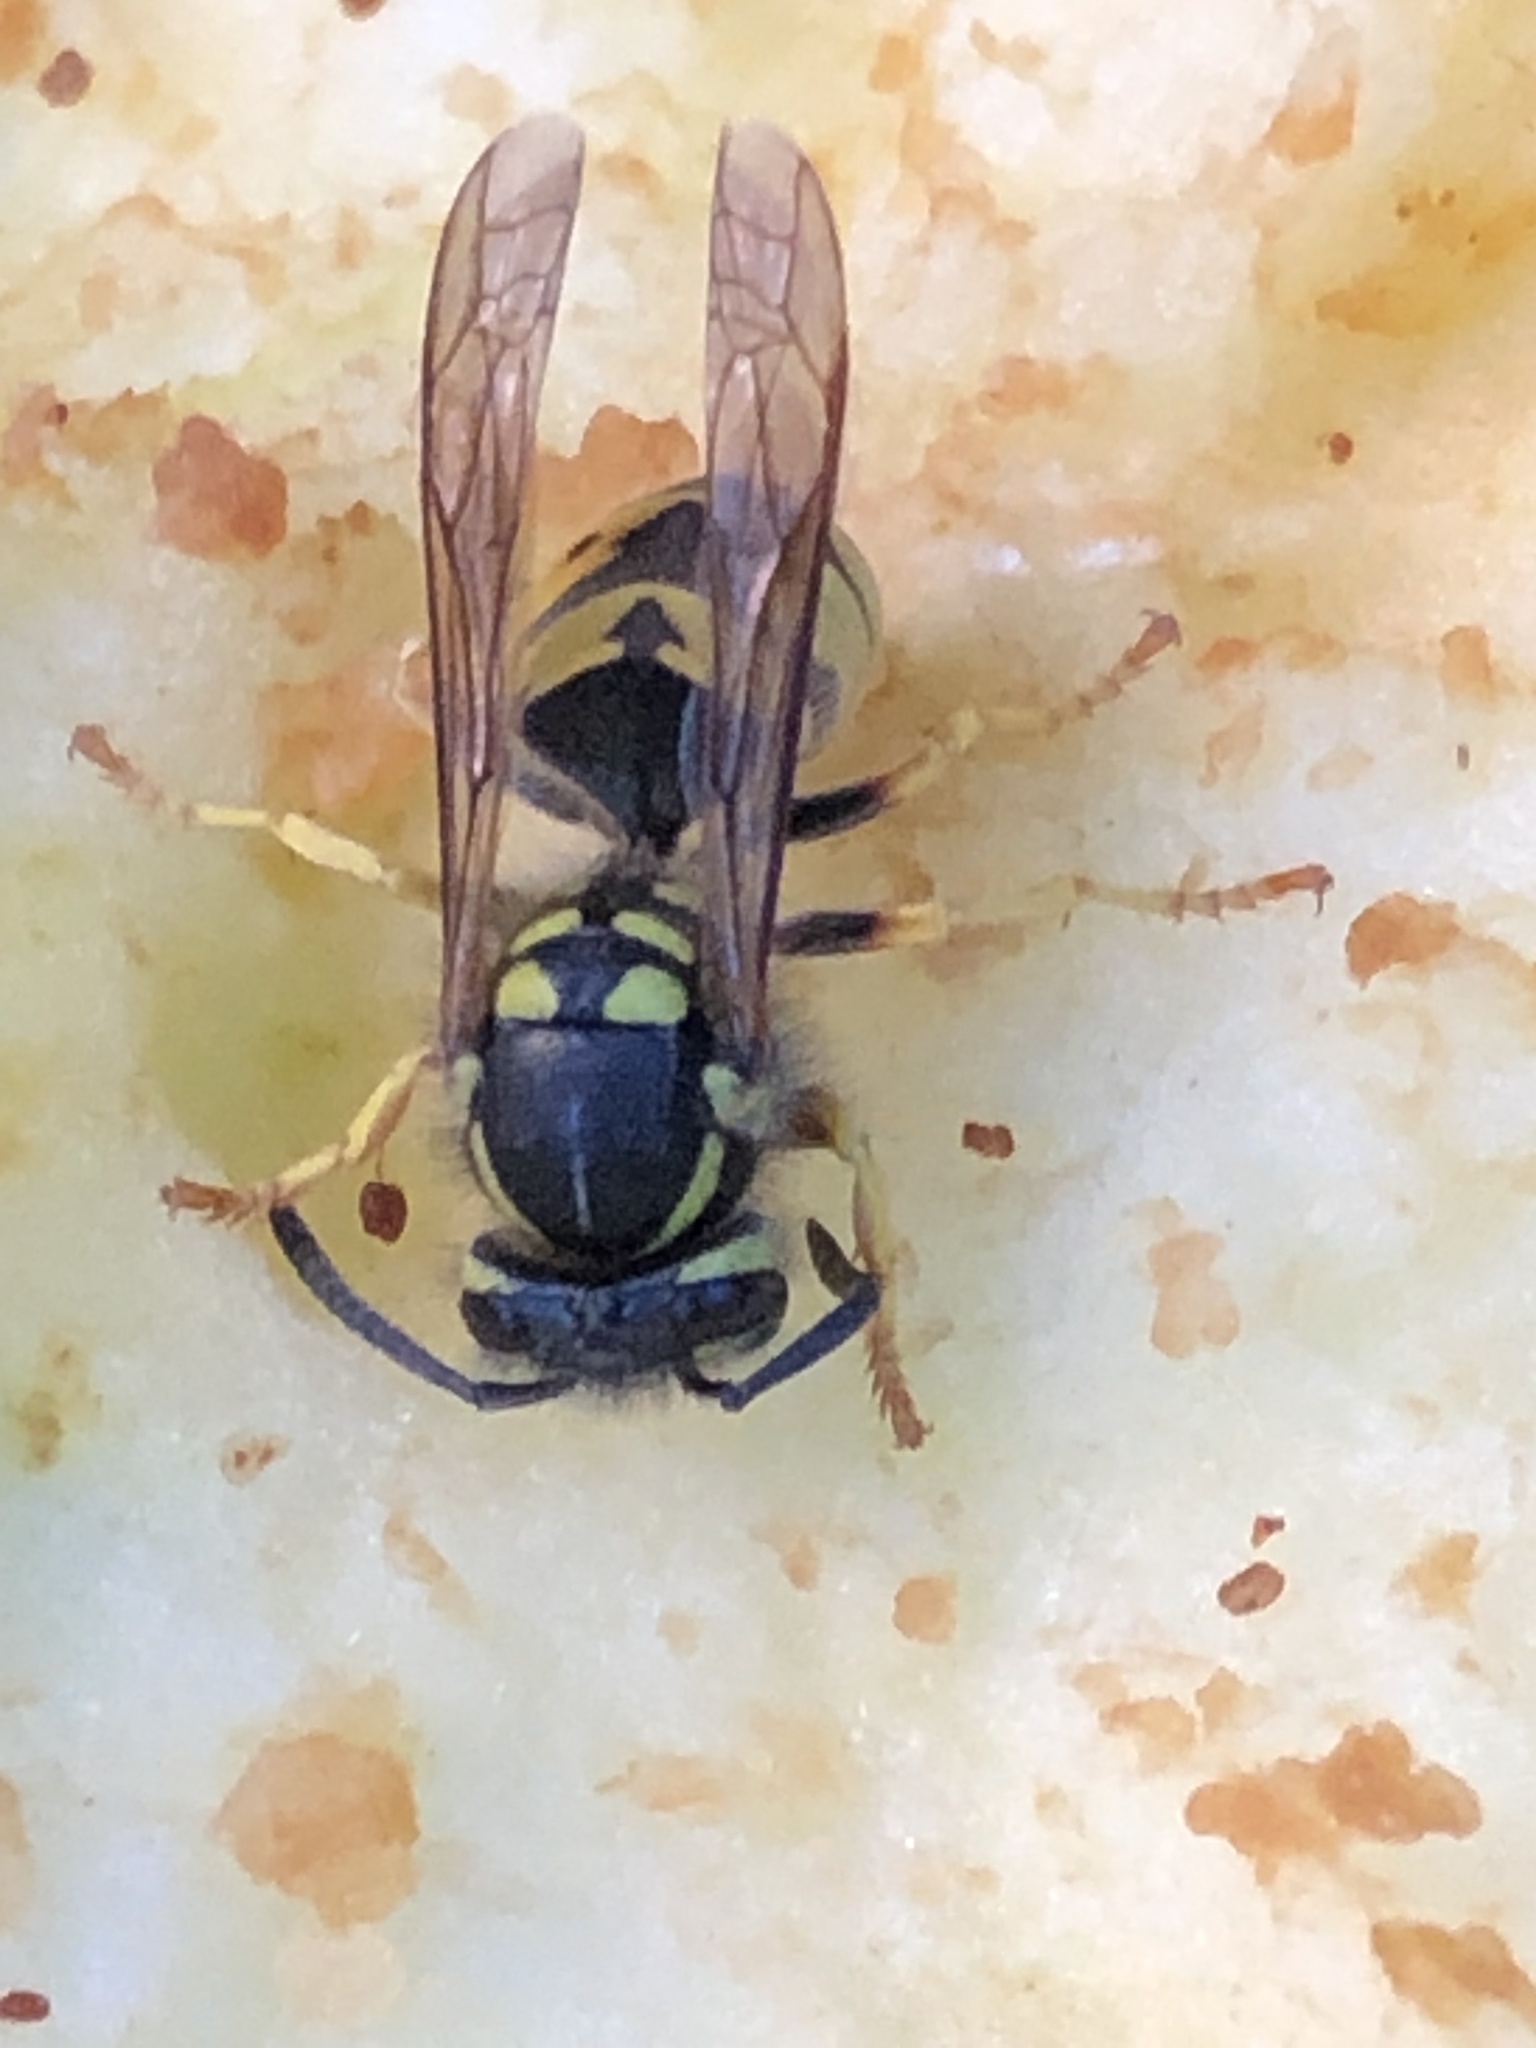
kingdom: Animalia
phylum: Arthropoda
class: Insecta
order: Hymenoptera
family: Vespidae
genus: Vespula
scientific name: Vespula germanica
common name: German wasp
